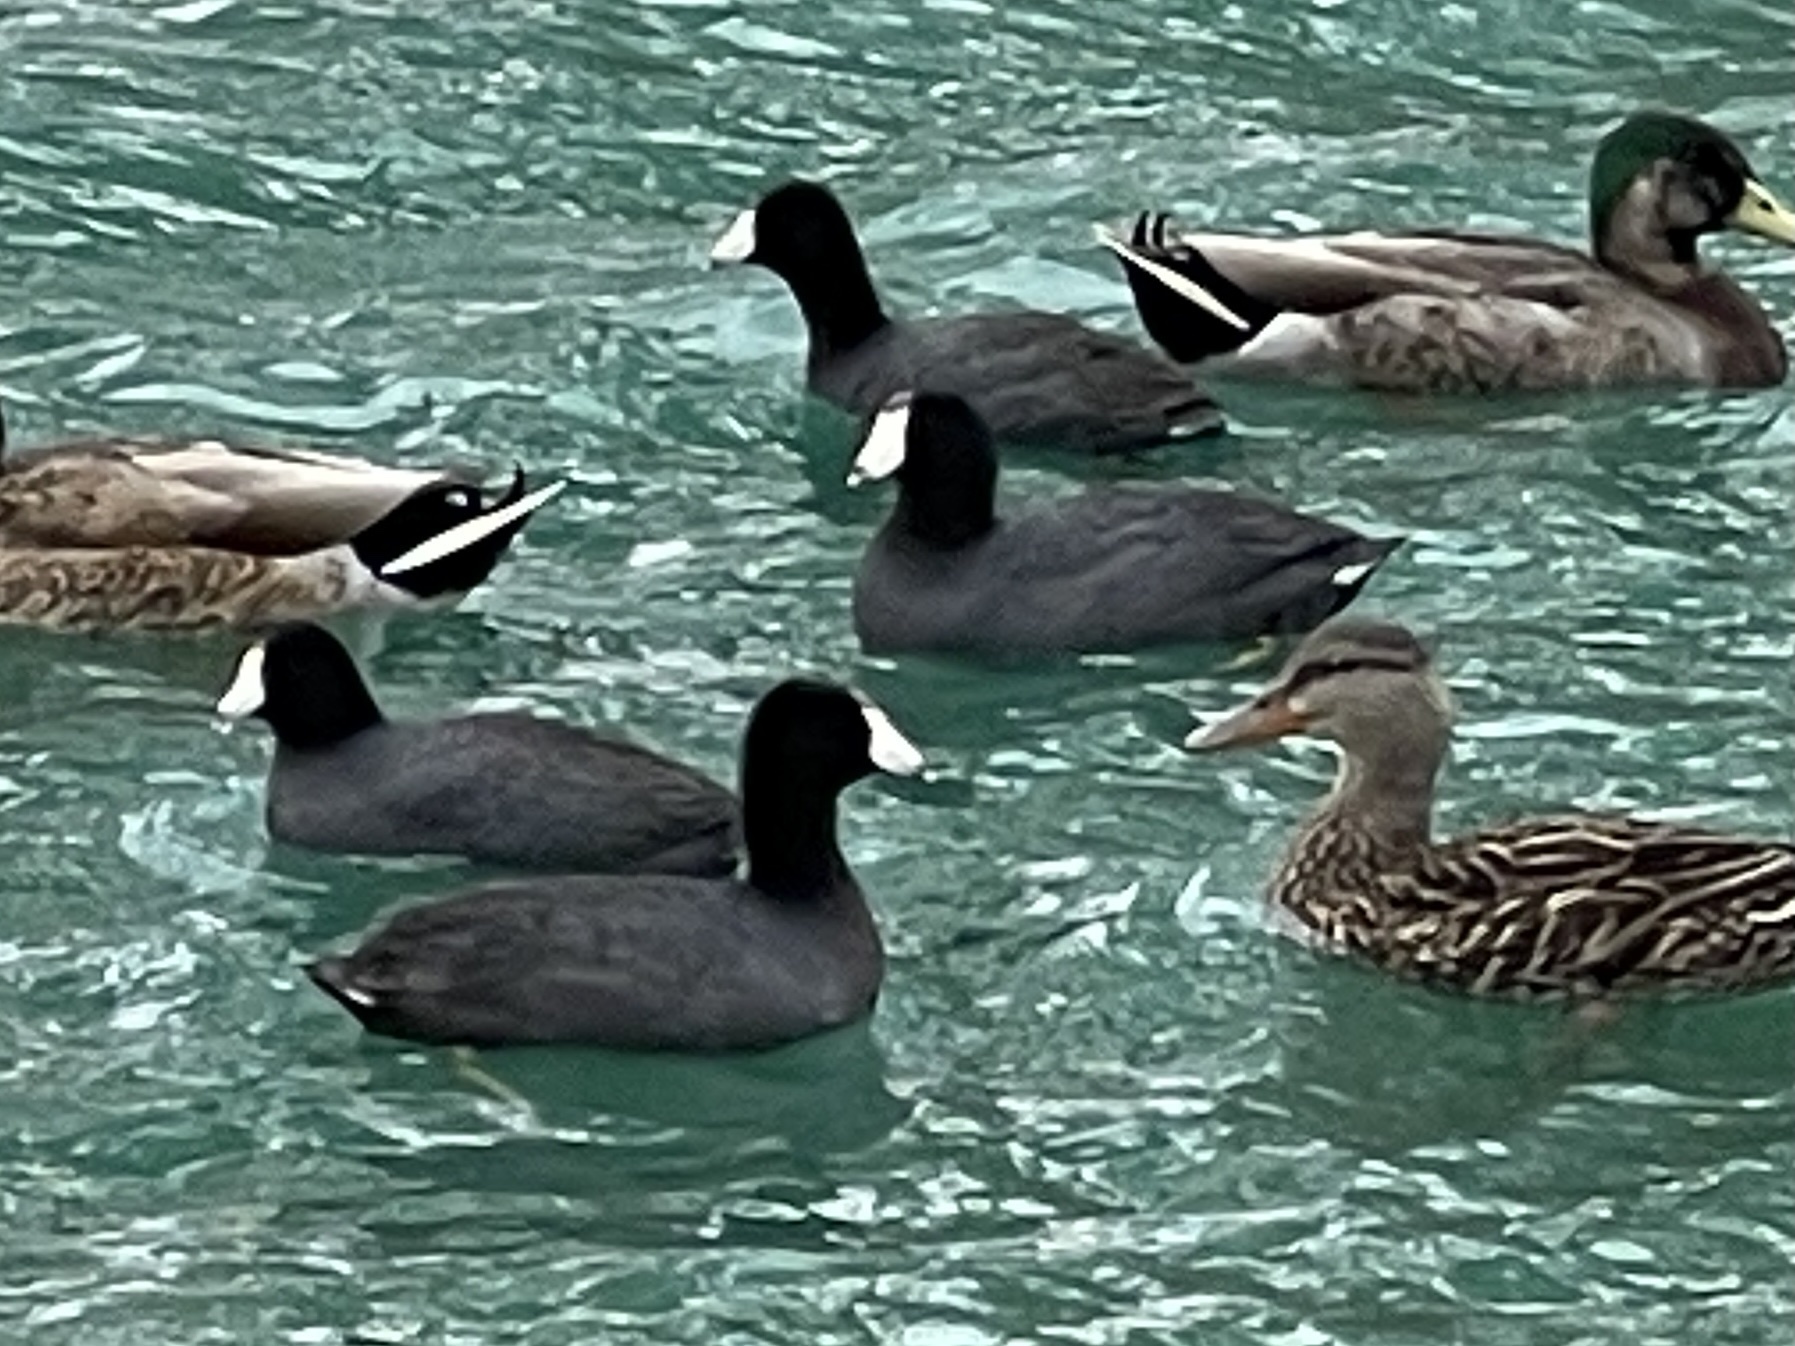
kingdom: Animalia
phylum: Chordata
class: Aves
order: Gruiformes
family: Rallidae
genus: Fulica
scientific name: Fulica americana
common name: American coot
